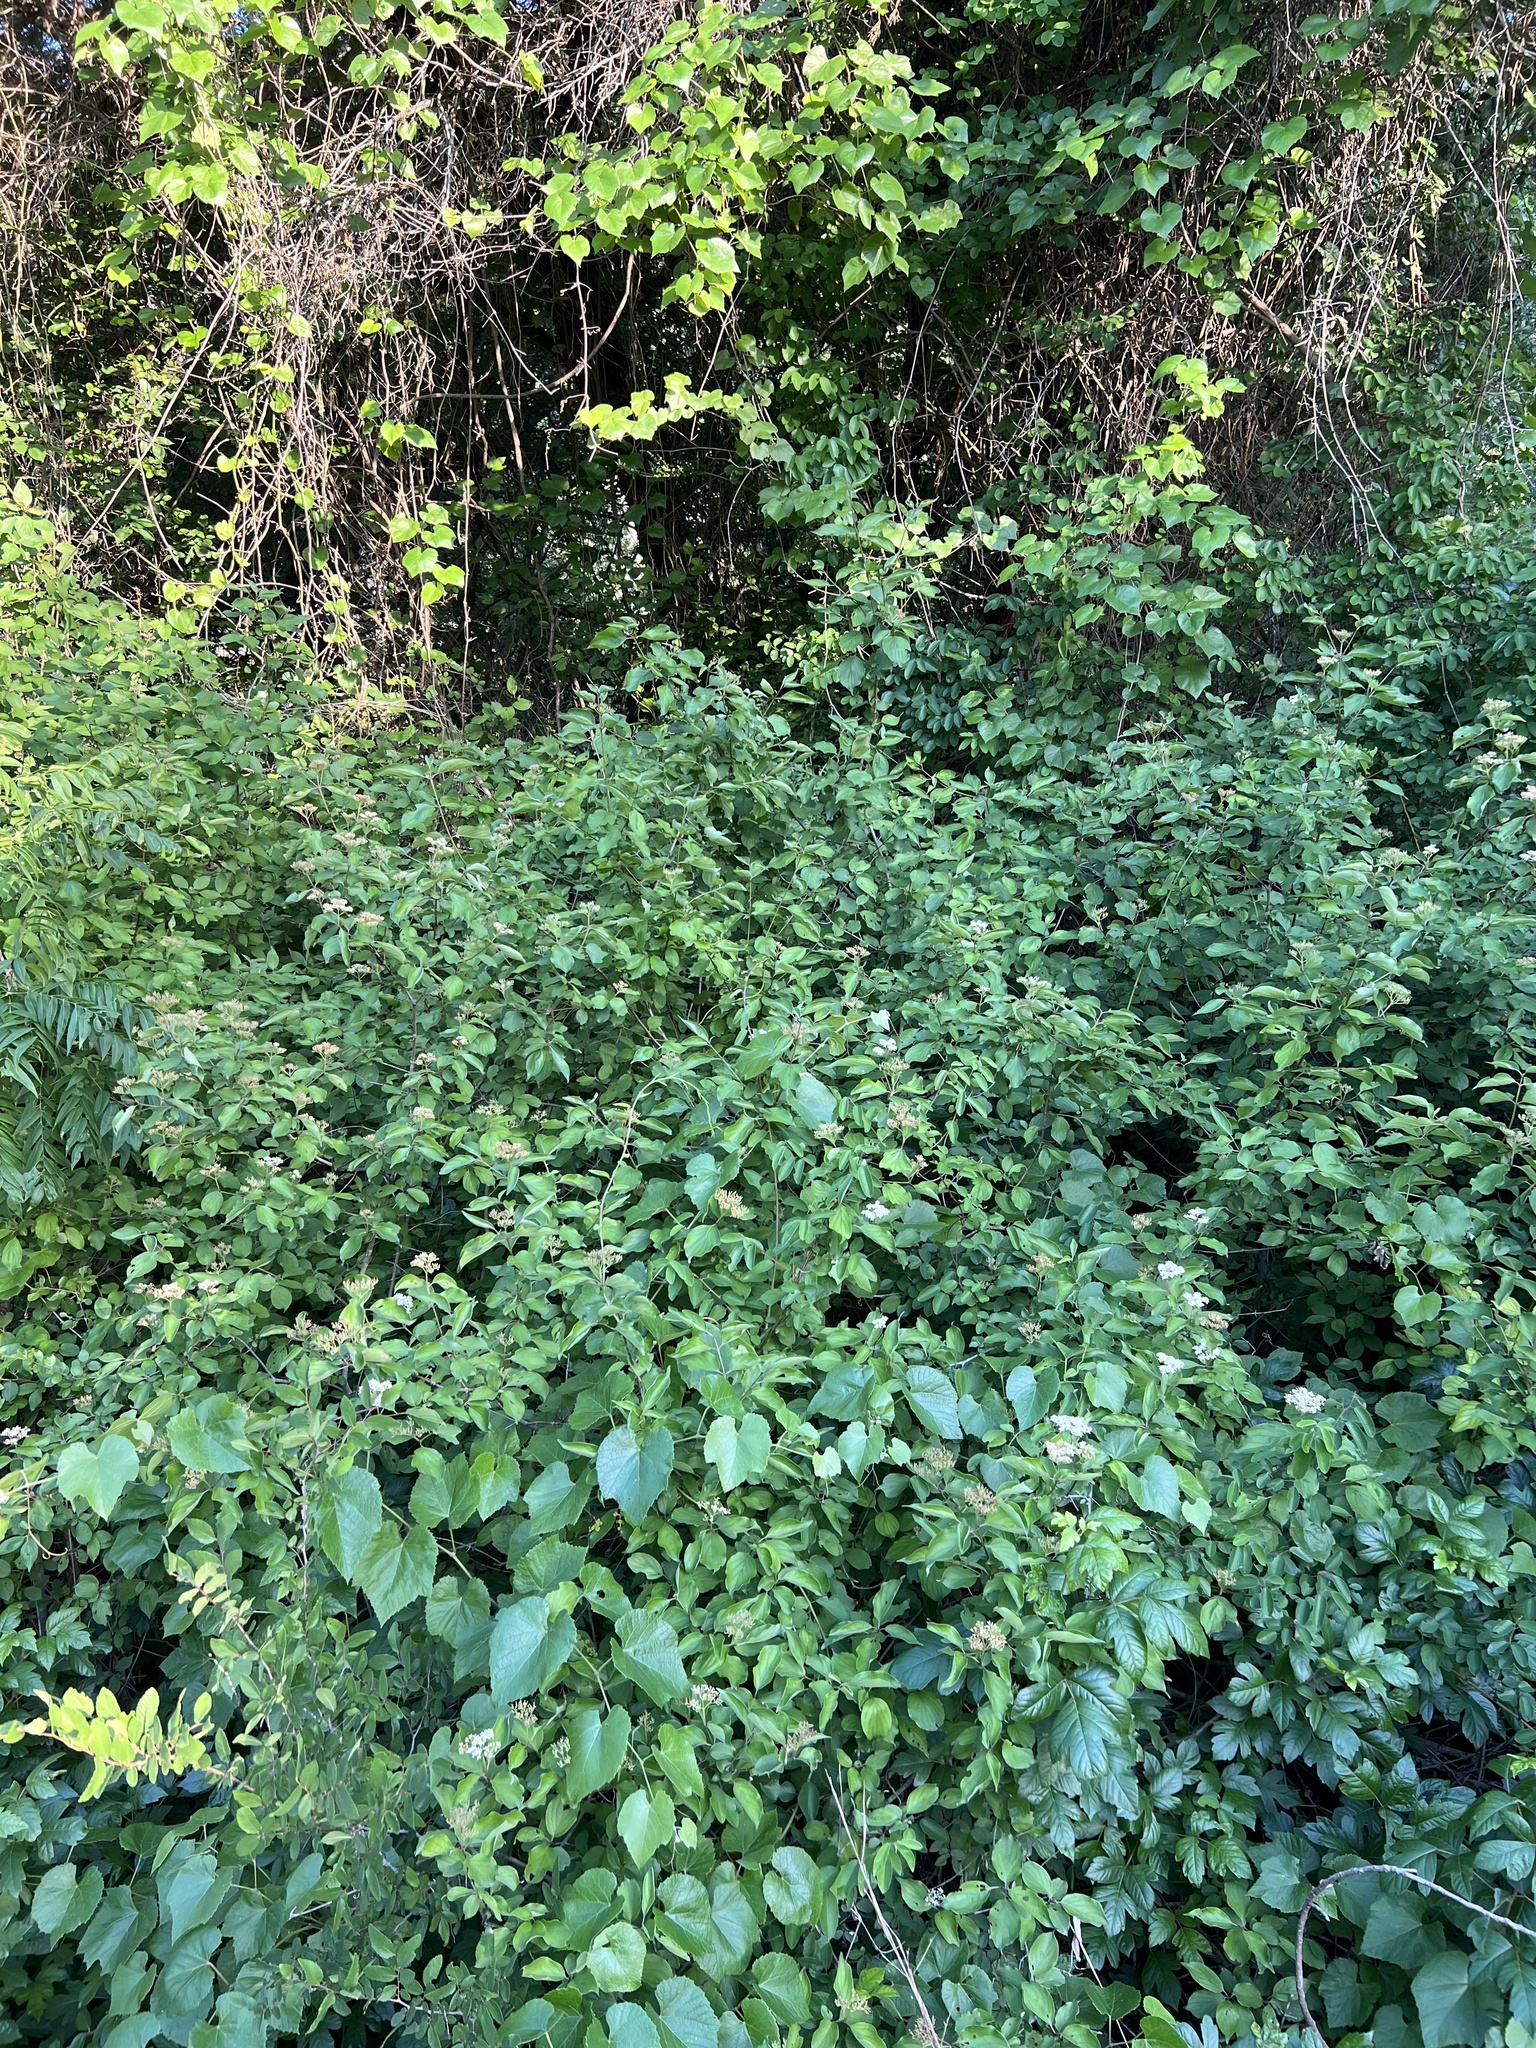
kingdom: Plantae
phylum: Tracheophyta
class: Magnoliopsida
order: Cornales
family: Cornaceae
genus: Cornus
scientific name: Cornus drummondii
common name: Rough-leaf dogwood
